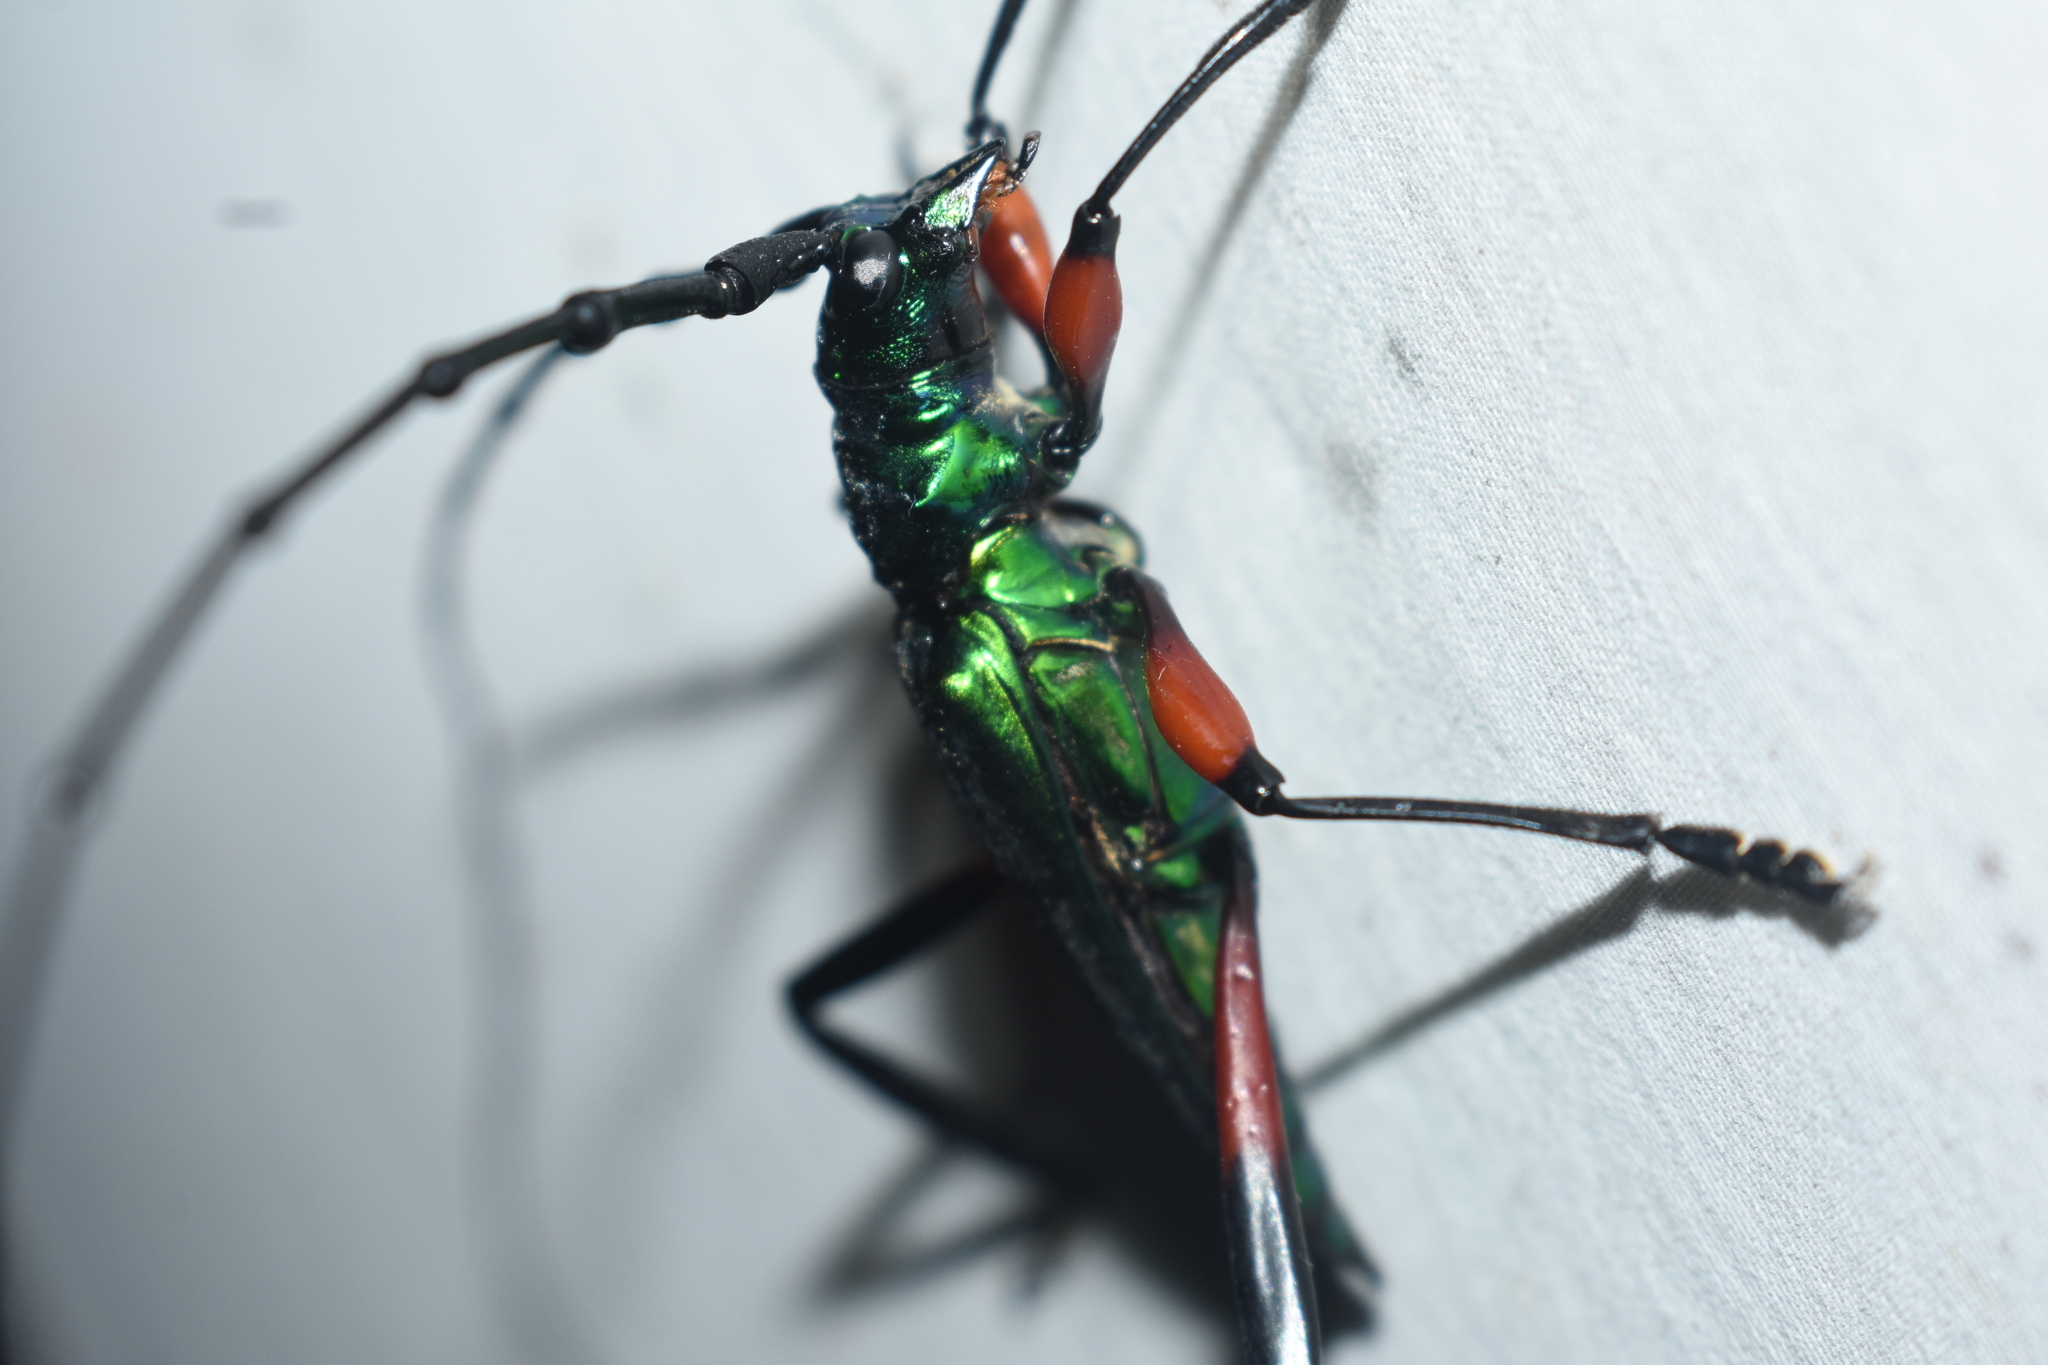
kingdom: Animalia
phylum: Arthropoda
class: Insecta
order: Coleoptera
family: Cerambycidae
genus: Callichroma
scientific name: Callichroma holochlorum
